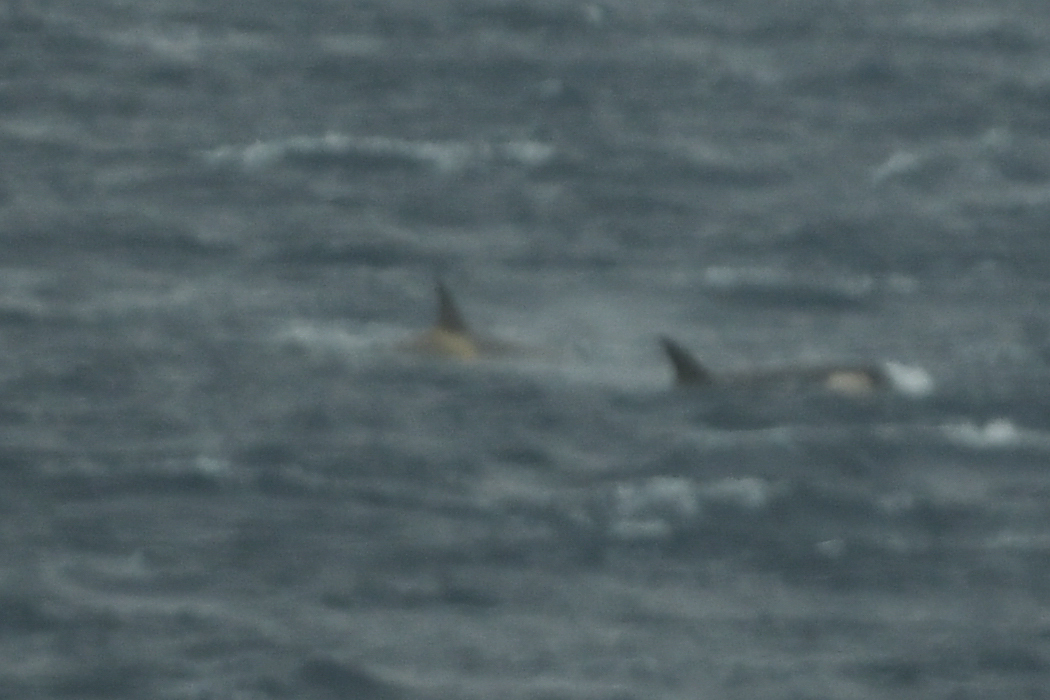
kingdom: Animalia
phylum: Chordata
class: Mammalia
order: Cetacea
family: Delphinidae
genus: Orcinus
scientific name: Orcinus orca
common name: Killer whale
